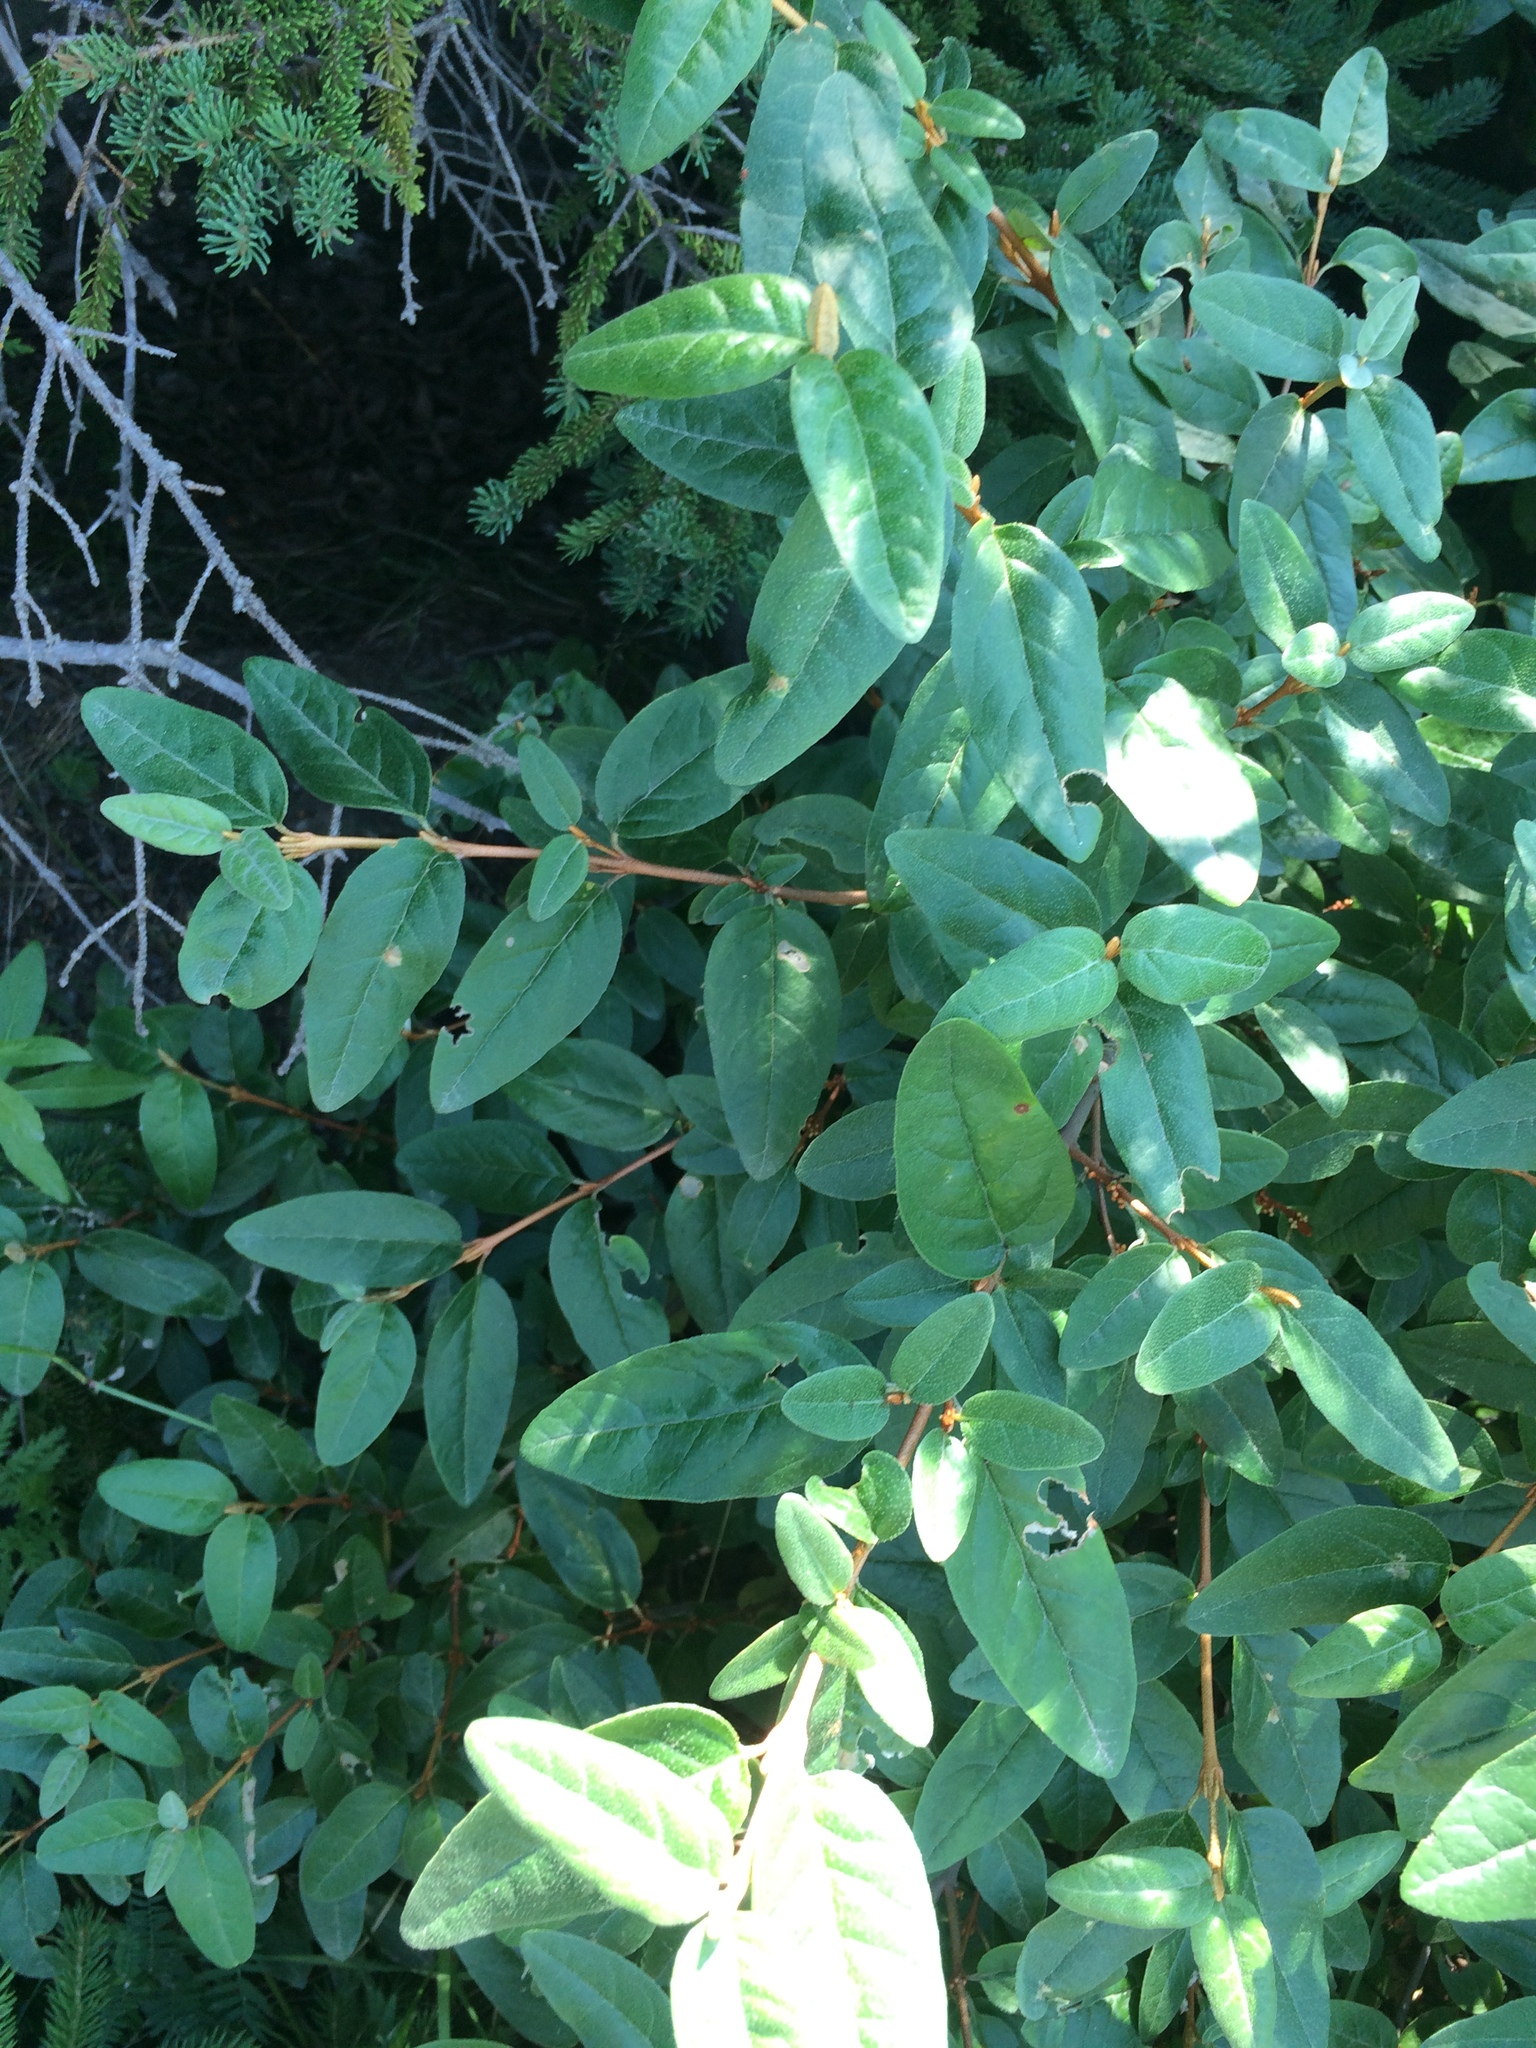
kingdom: Plantae
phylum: Tracheophyta
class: Magnoliopsida
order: Rosales
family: Elaeagnaceae
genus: Shepherdia
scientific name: Shepherdia canadensis
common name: Soapberry
